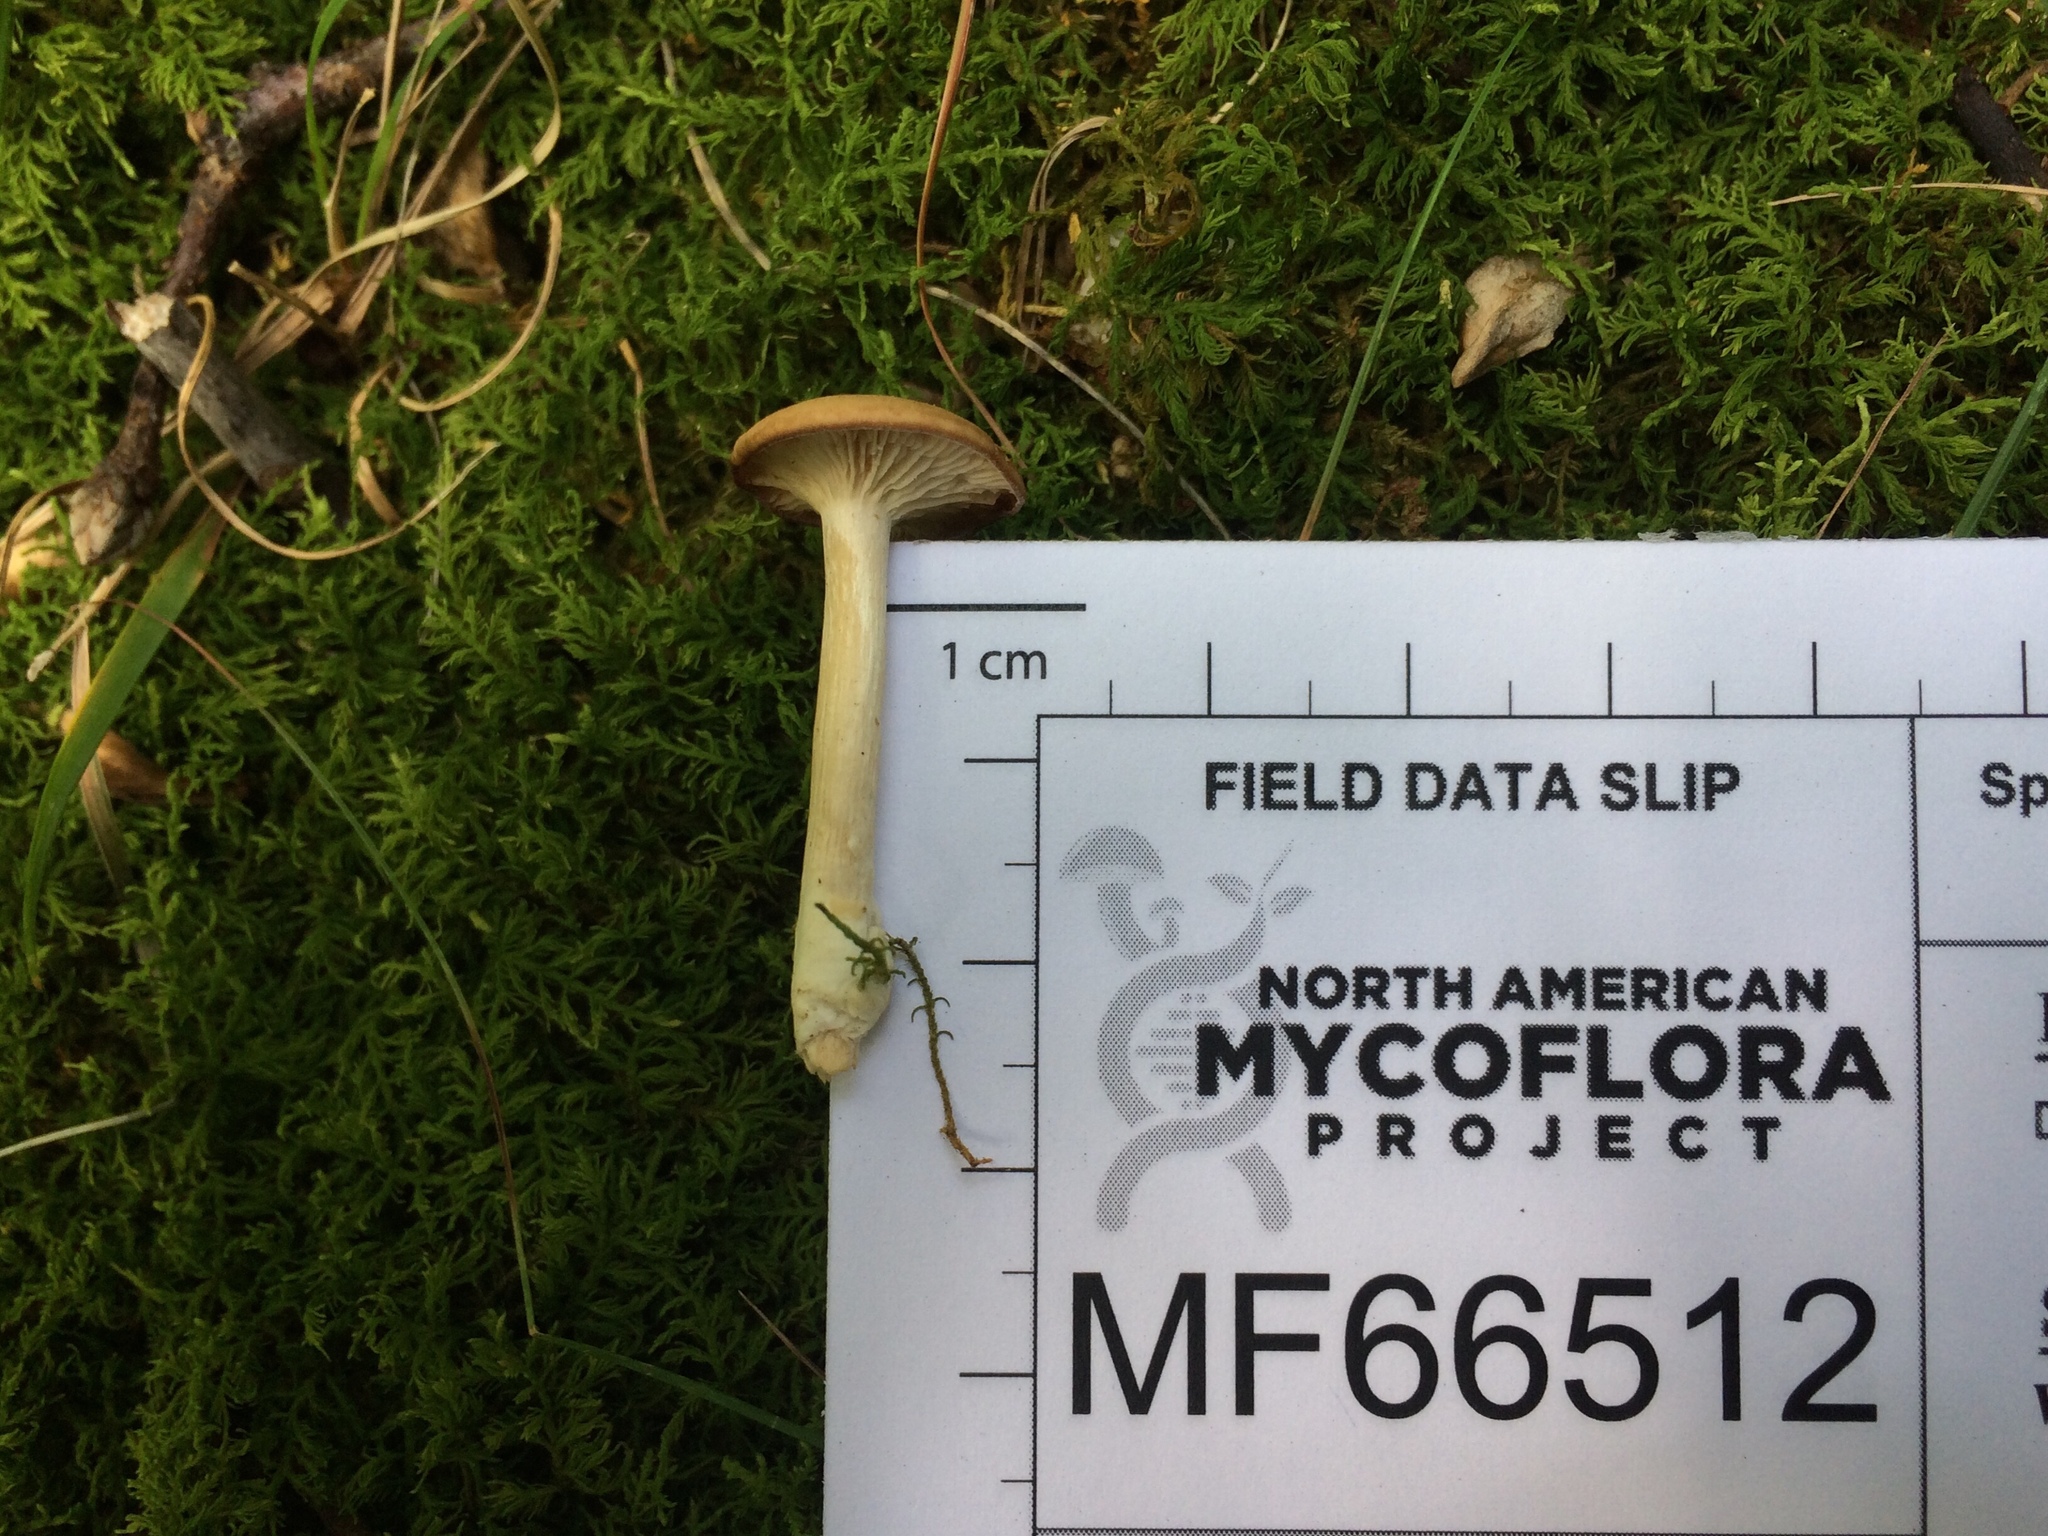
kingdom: Fungi
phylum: Basidiomycota
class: Agaricomycetes
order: Agaricales
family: Tricholomataceae
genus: Clitocybe
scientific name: Clitocybe subditopoda
